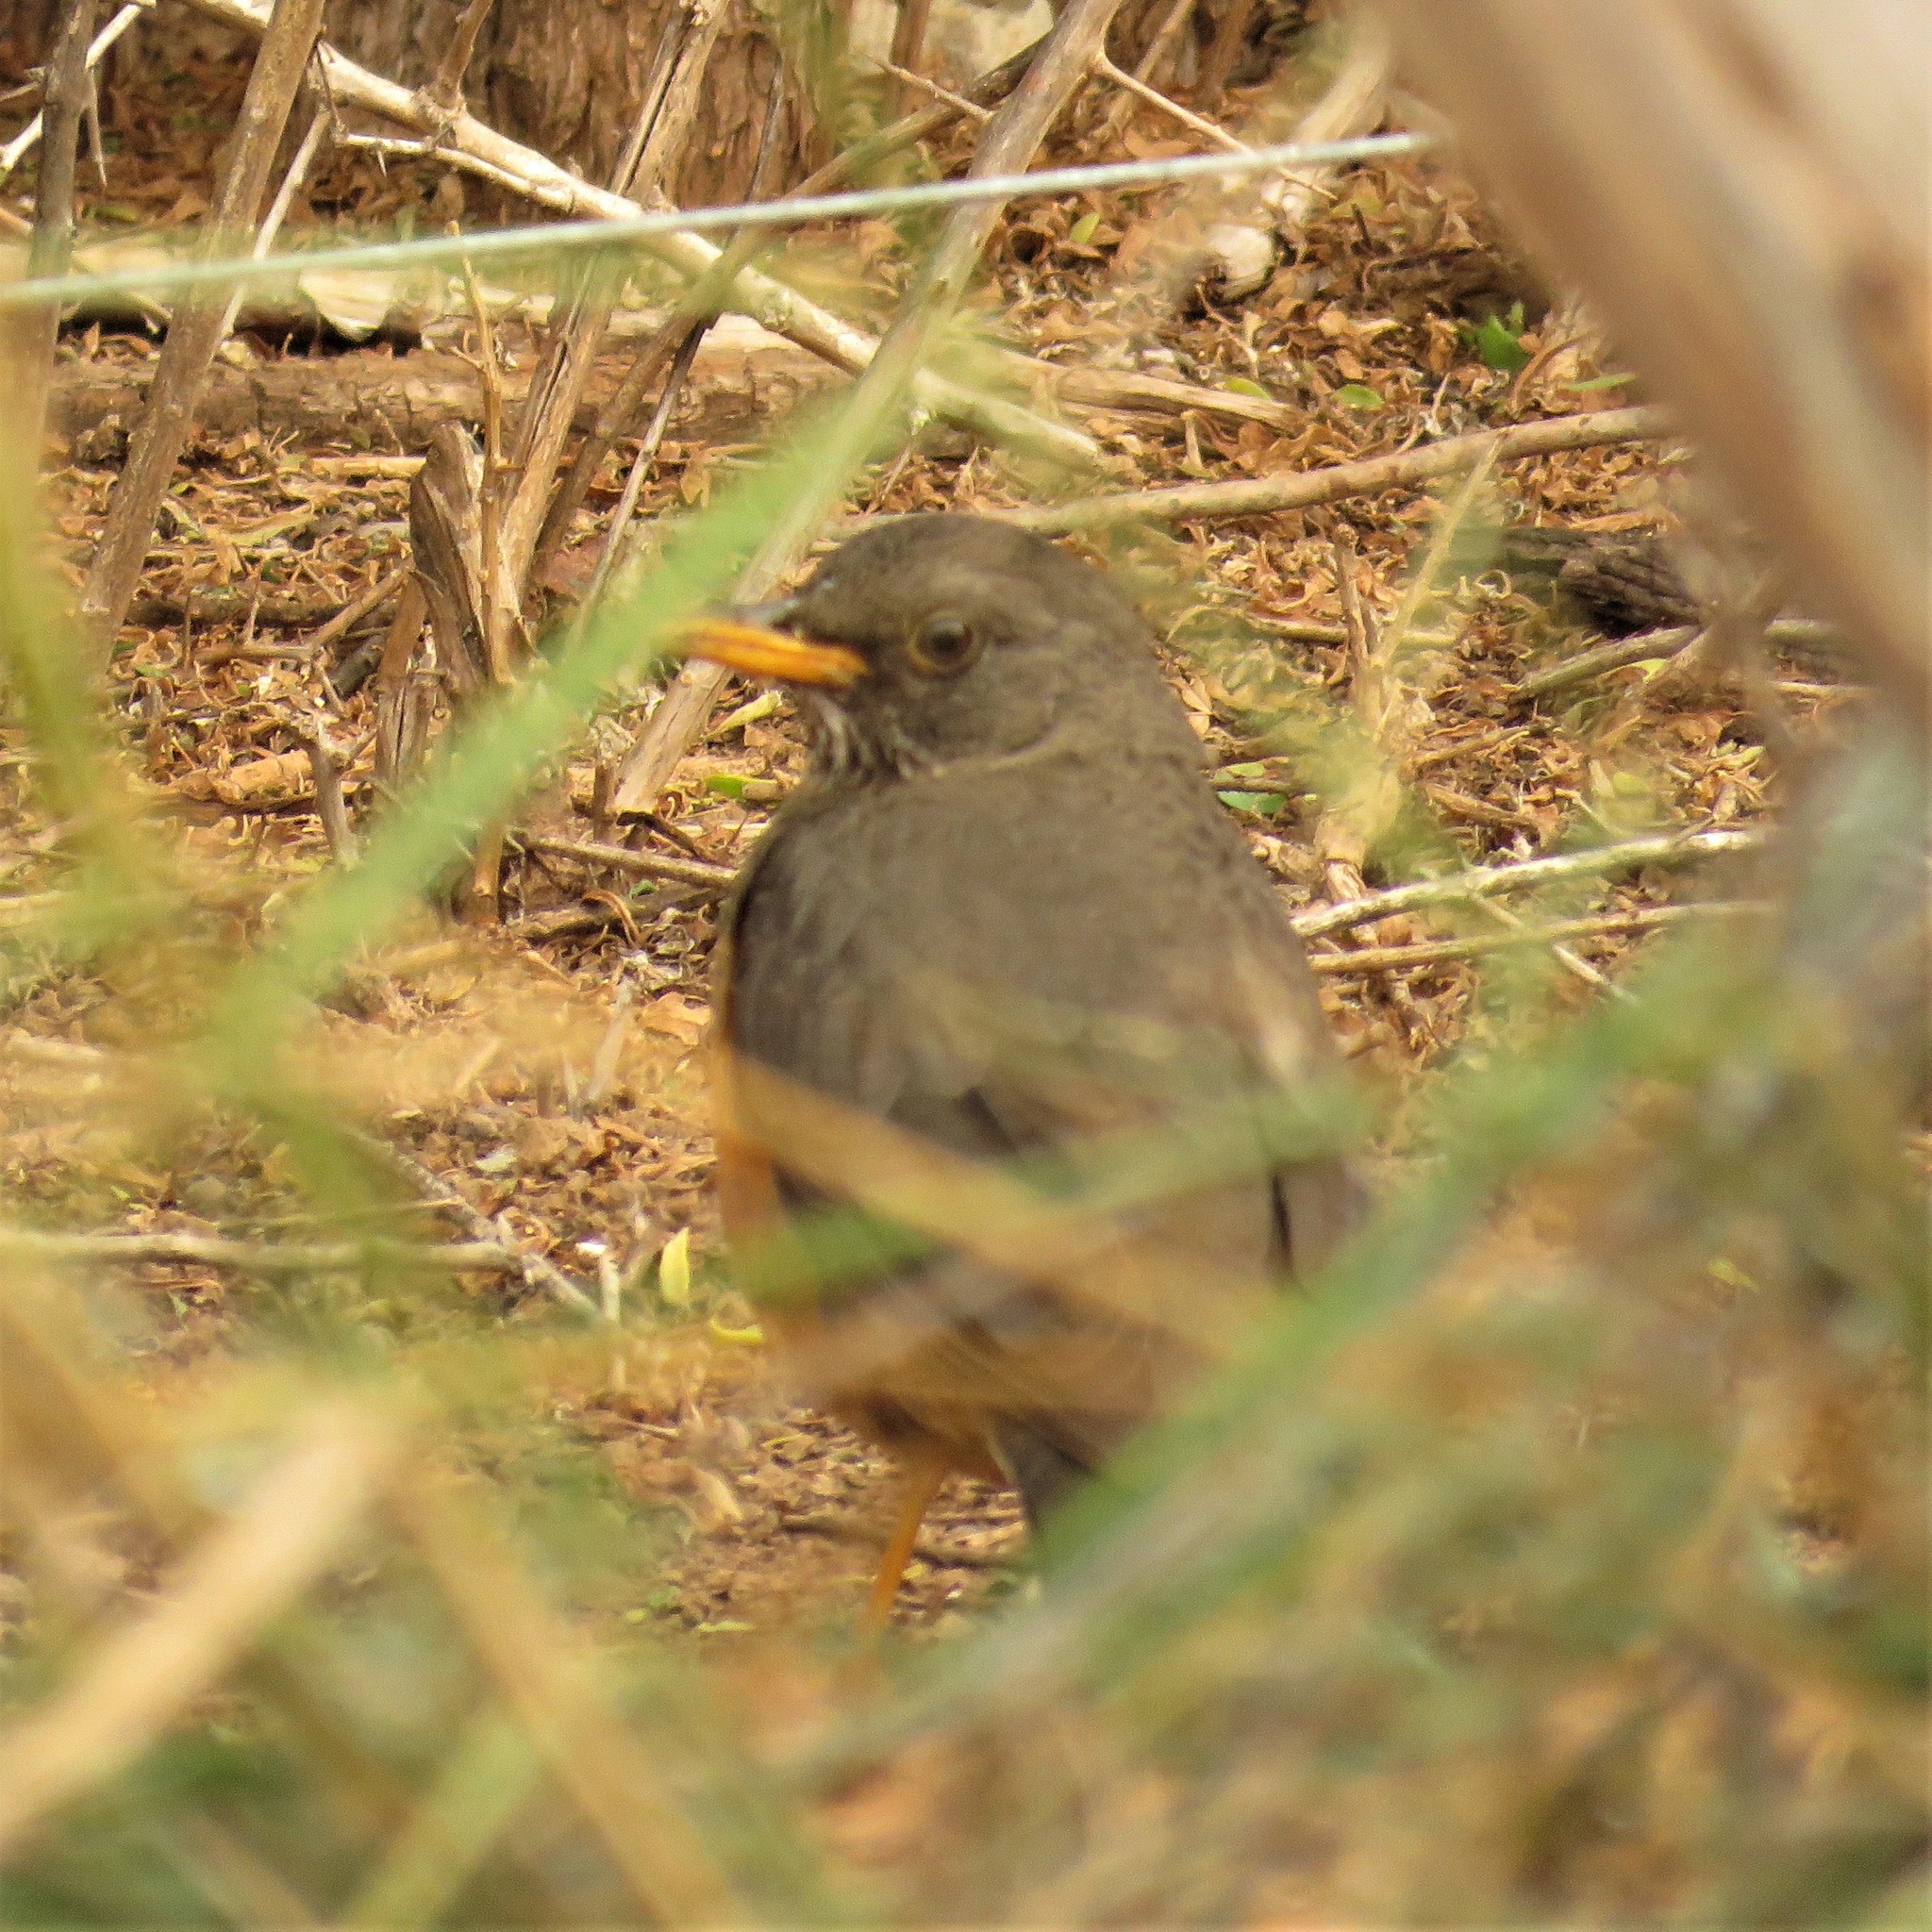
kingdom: Animalia
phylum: Chordata
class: Aves
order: Passeriformes
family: Turdidae
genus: Turdus
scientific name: Turdus olivaceus
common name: Olive thrush
